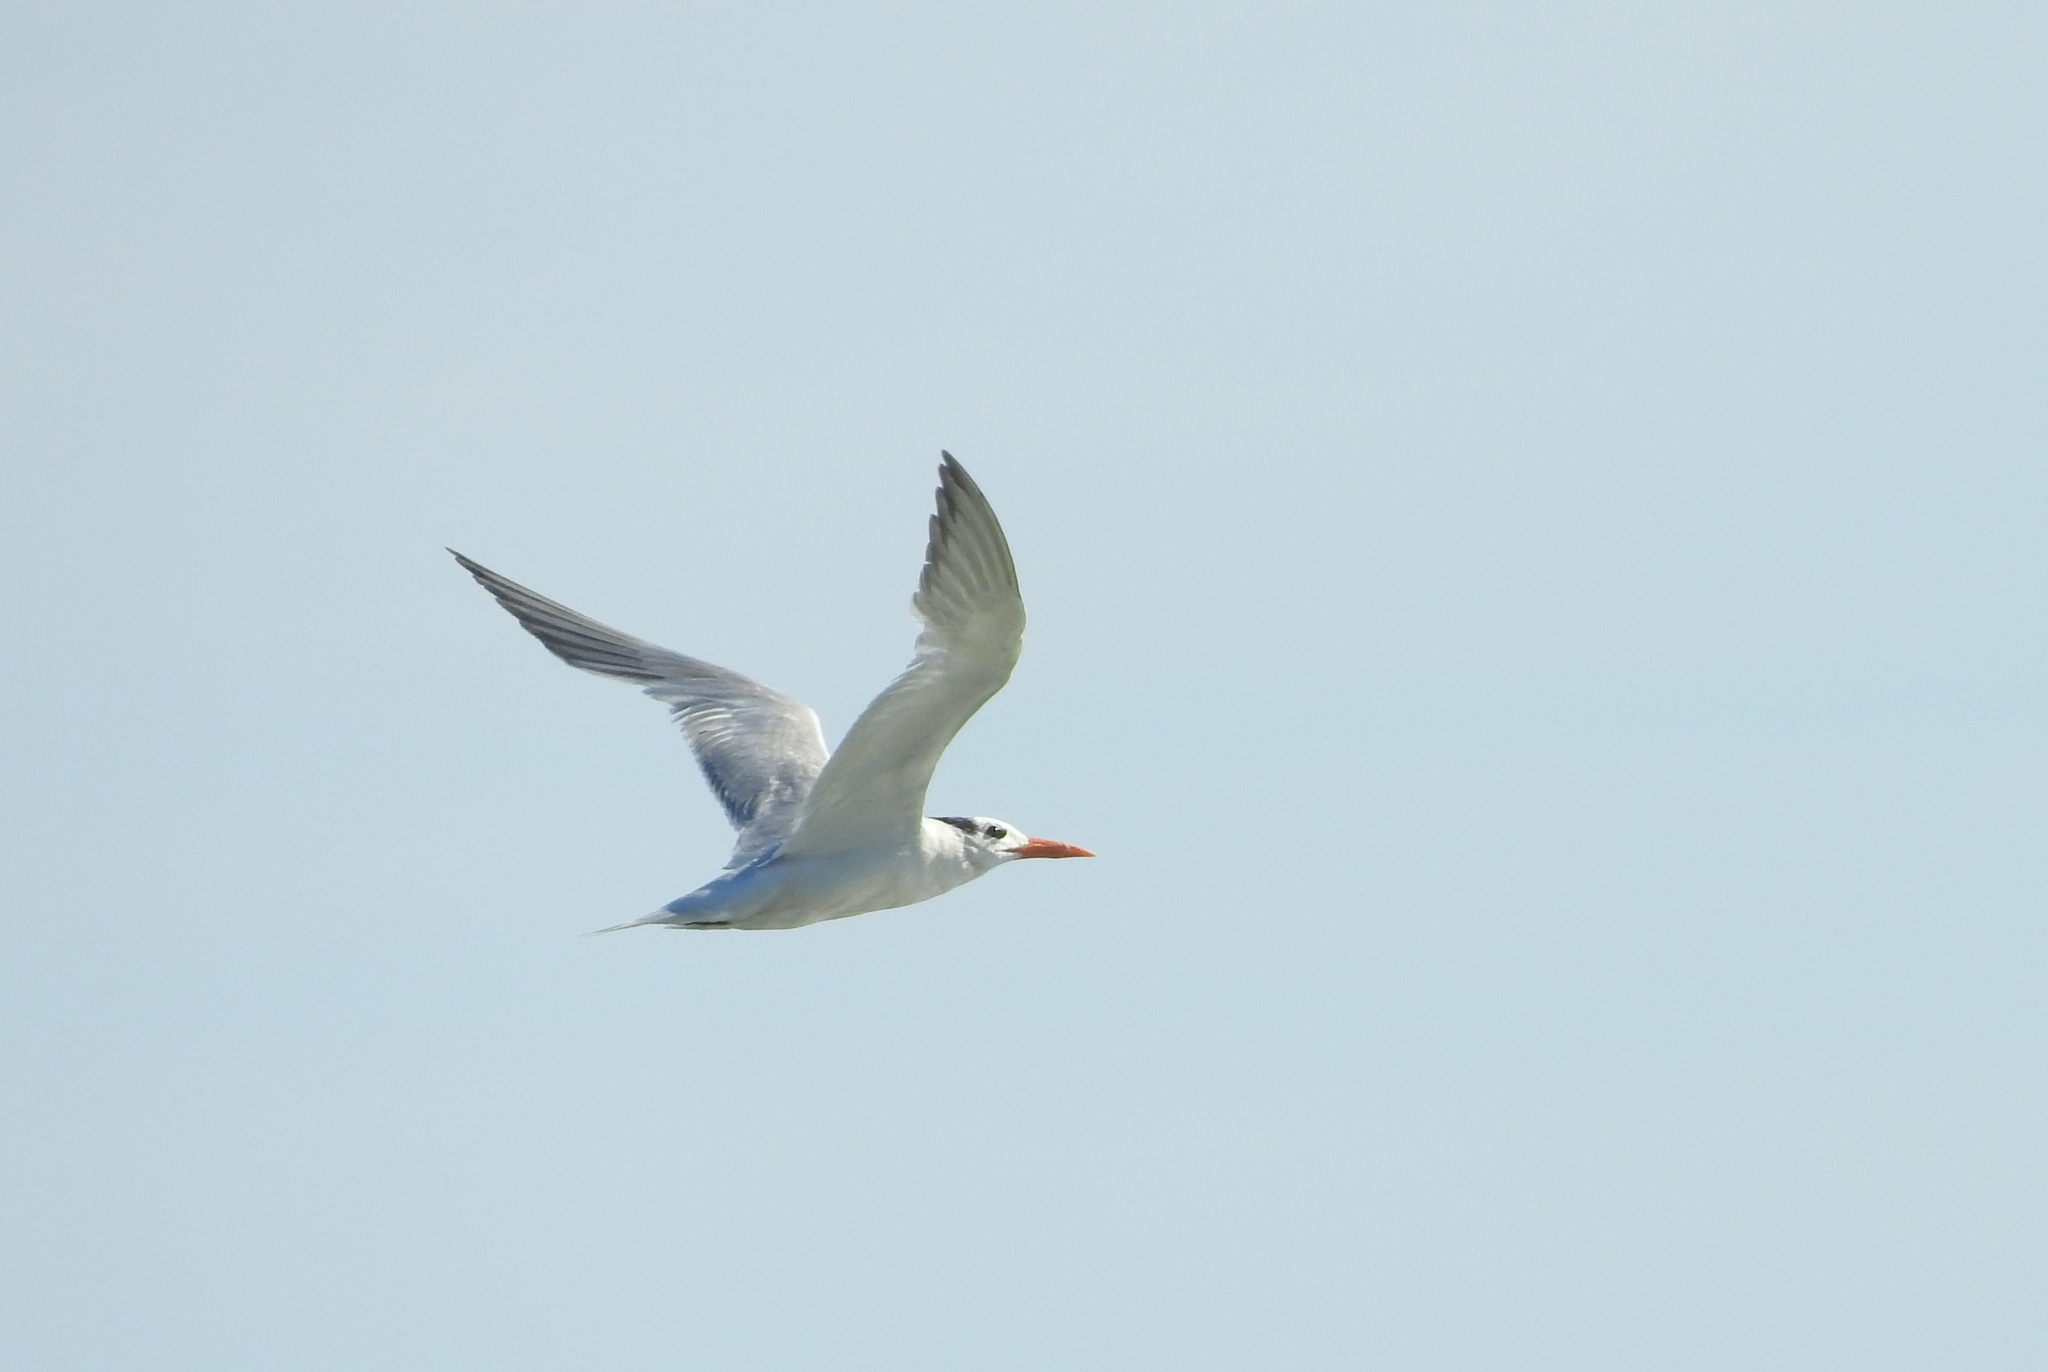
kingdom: Animalia
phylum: Chordata
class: Aves
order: Charadriiformes
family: Laridae
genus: Thalasseus
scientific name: Thalasseus maximus
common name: Royal tern
